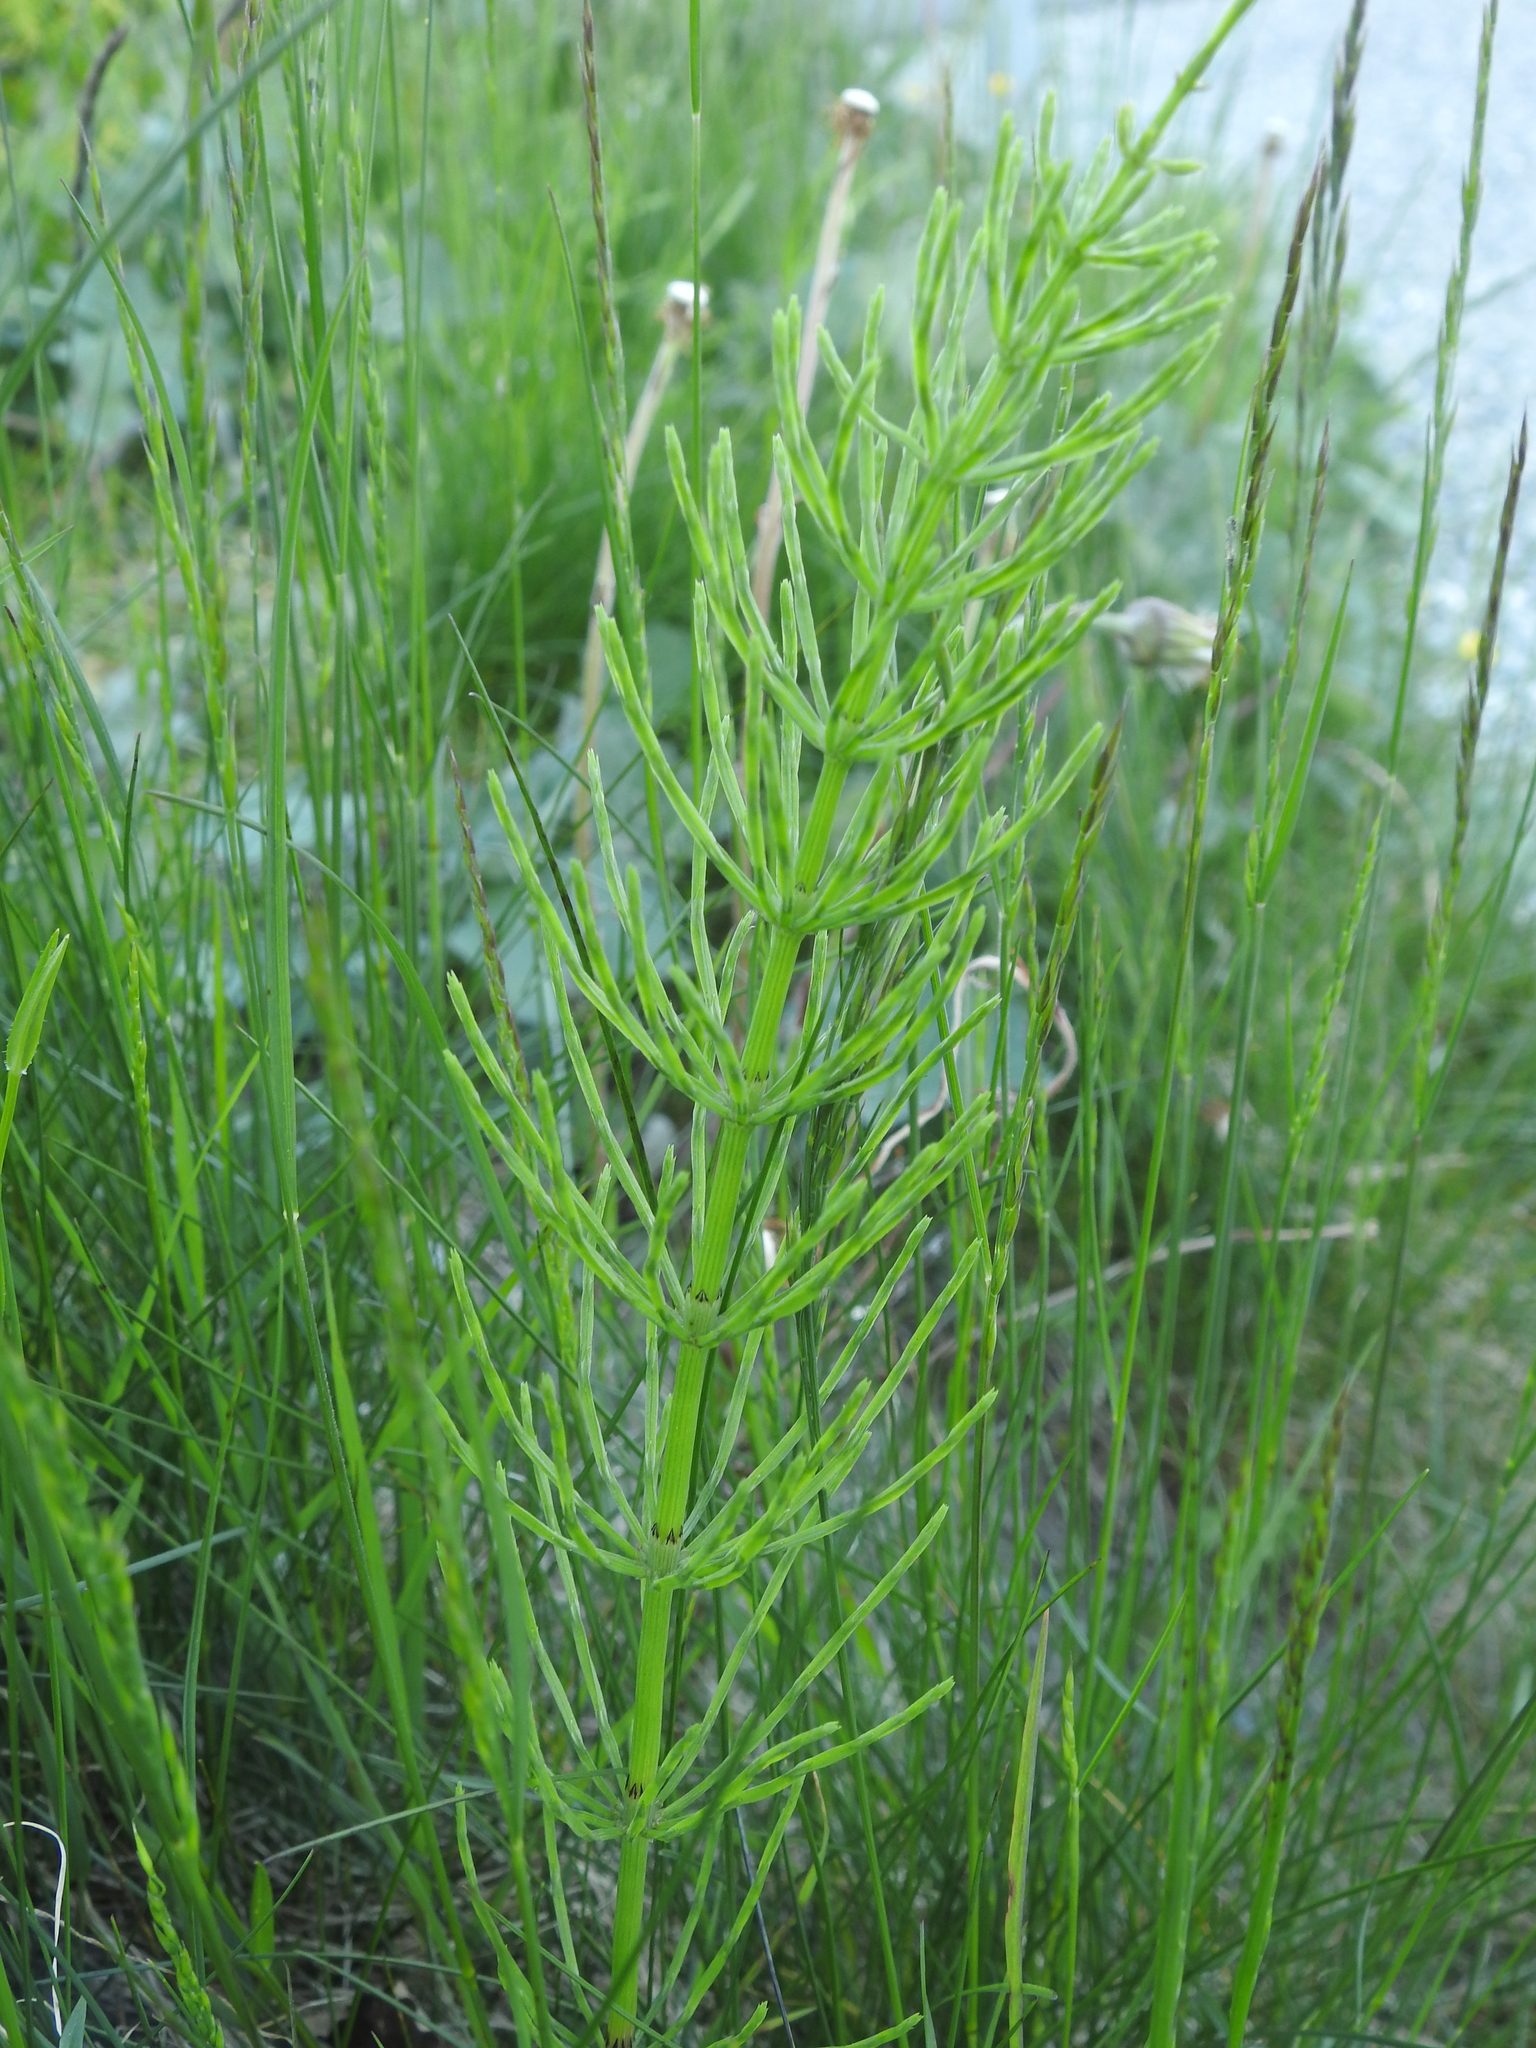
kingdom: Plantae
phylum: Tracheophyta
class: Polypodiopsida
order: Equisetales
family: Equisetaceae
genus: Equisetum
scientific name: Equisetum arvense
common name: Field horsetail
